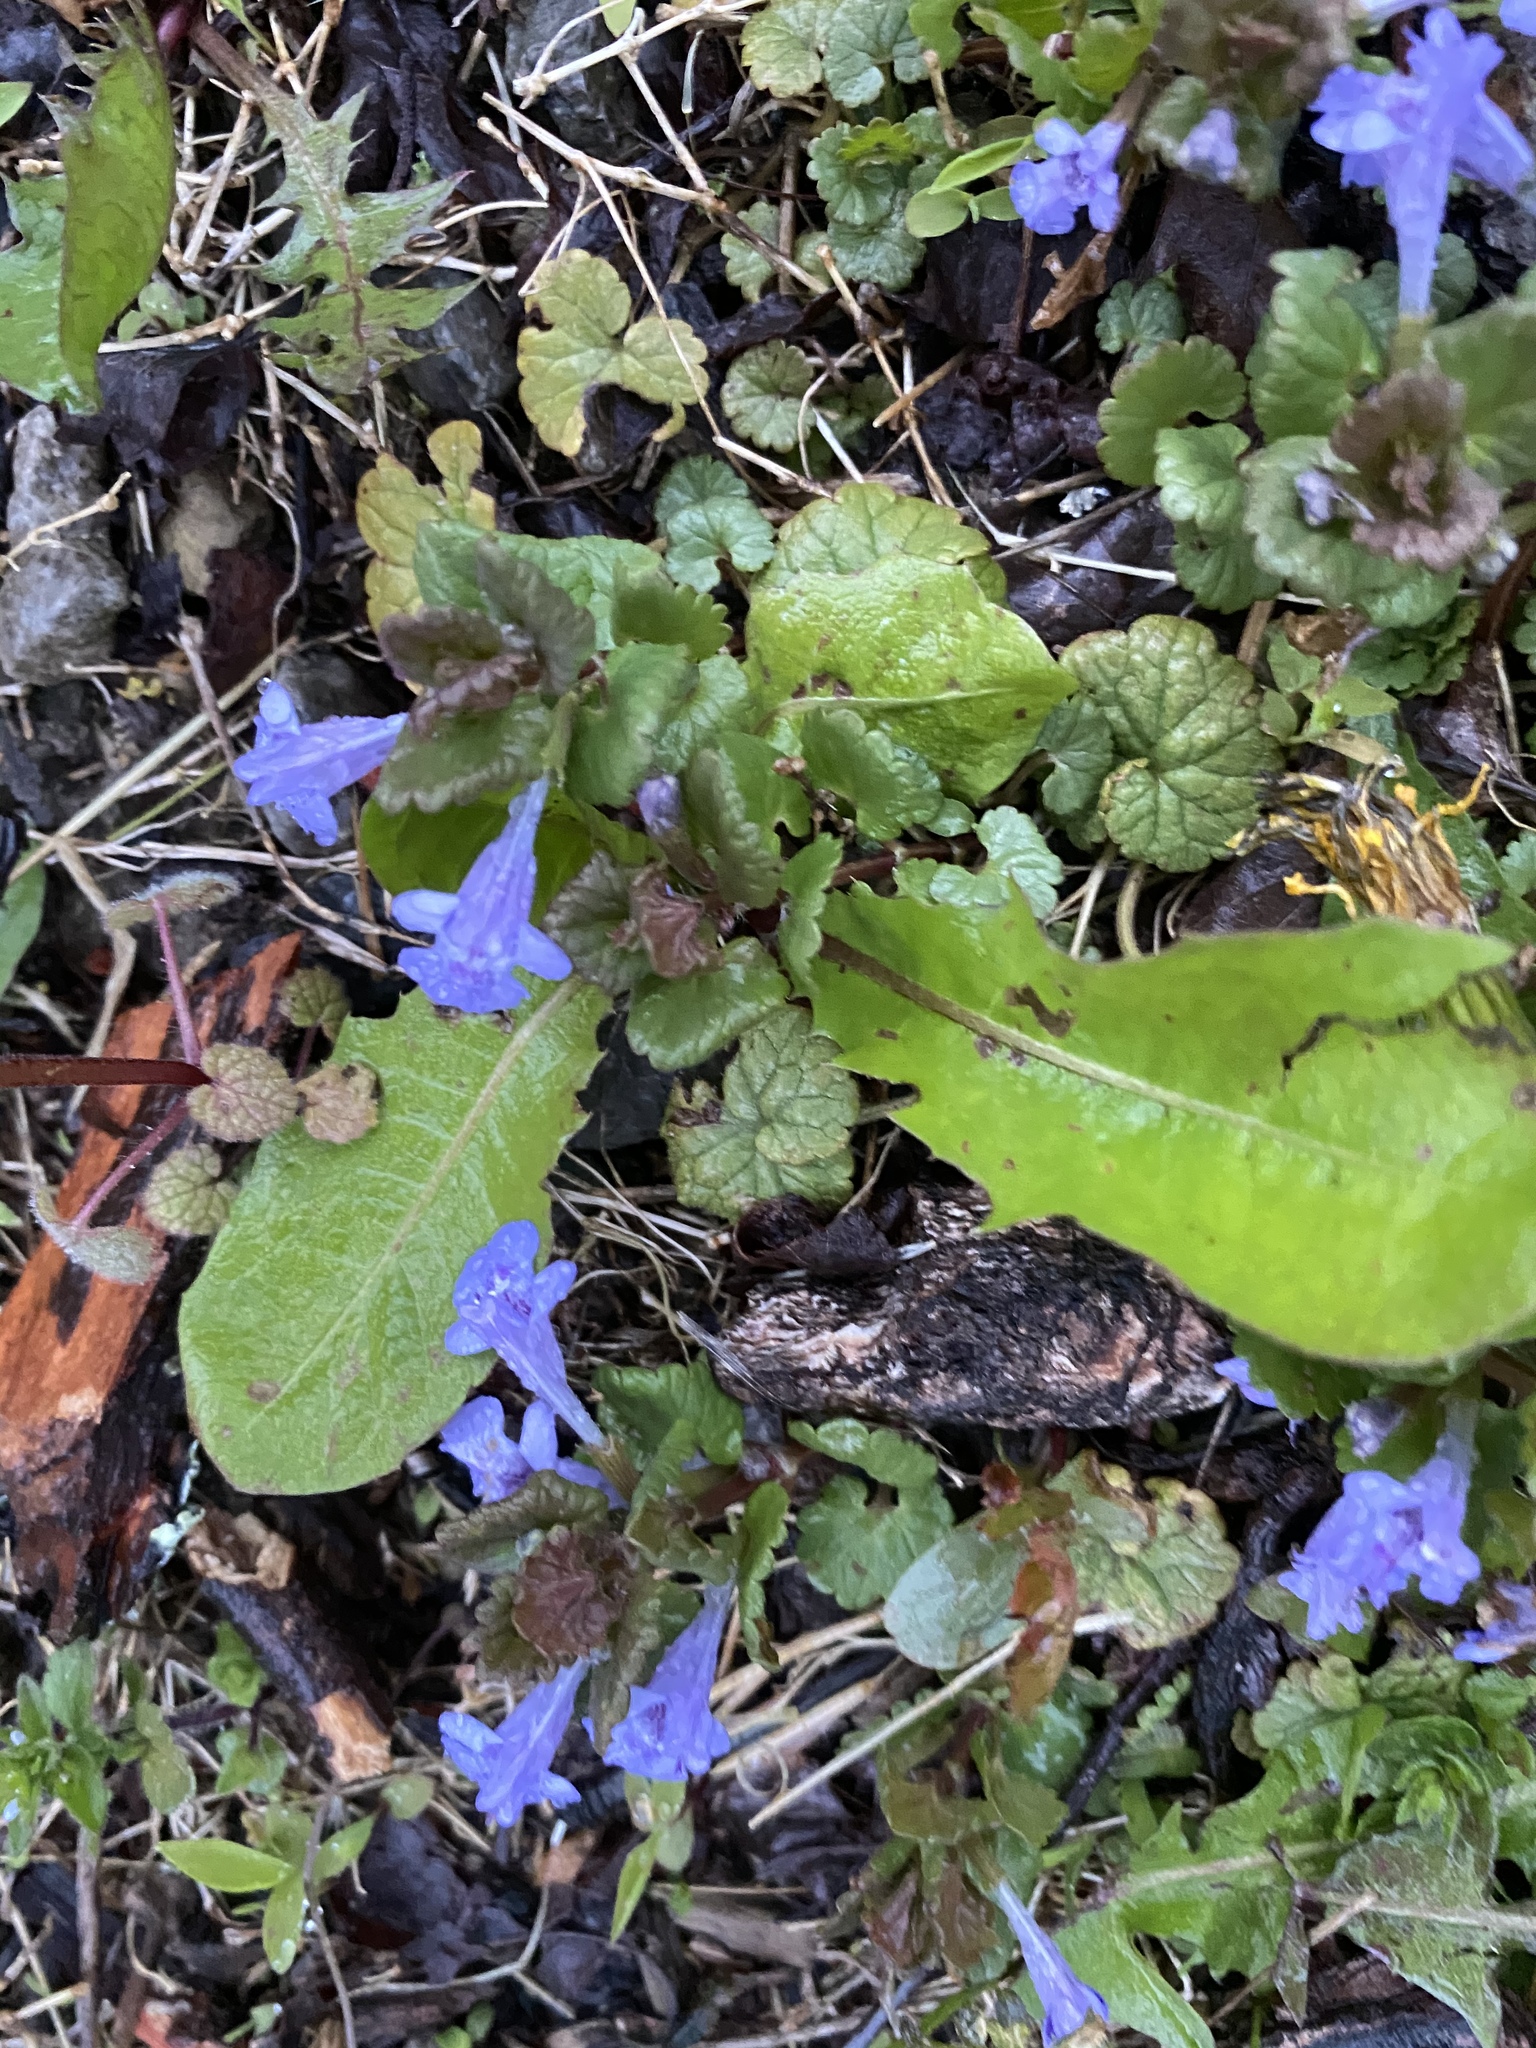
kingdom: Plantae
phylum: Tracheophyta
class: Magnoliopsida
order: Lamiales
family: Lamiaceae
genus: Glechoma
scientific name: Glechoma hederacea
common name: Ground ivy
